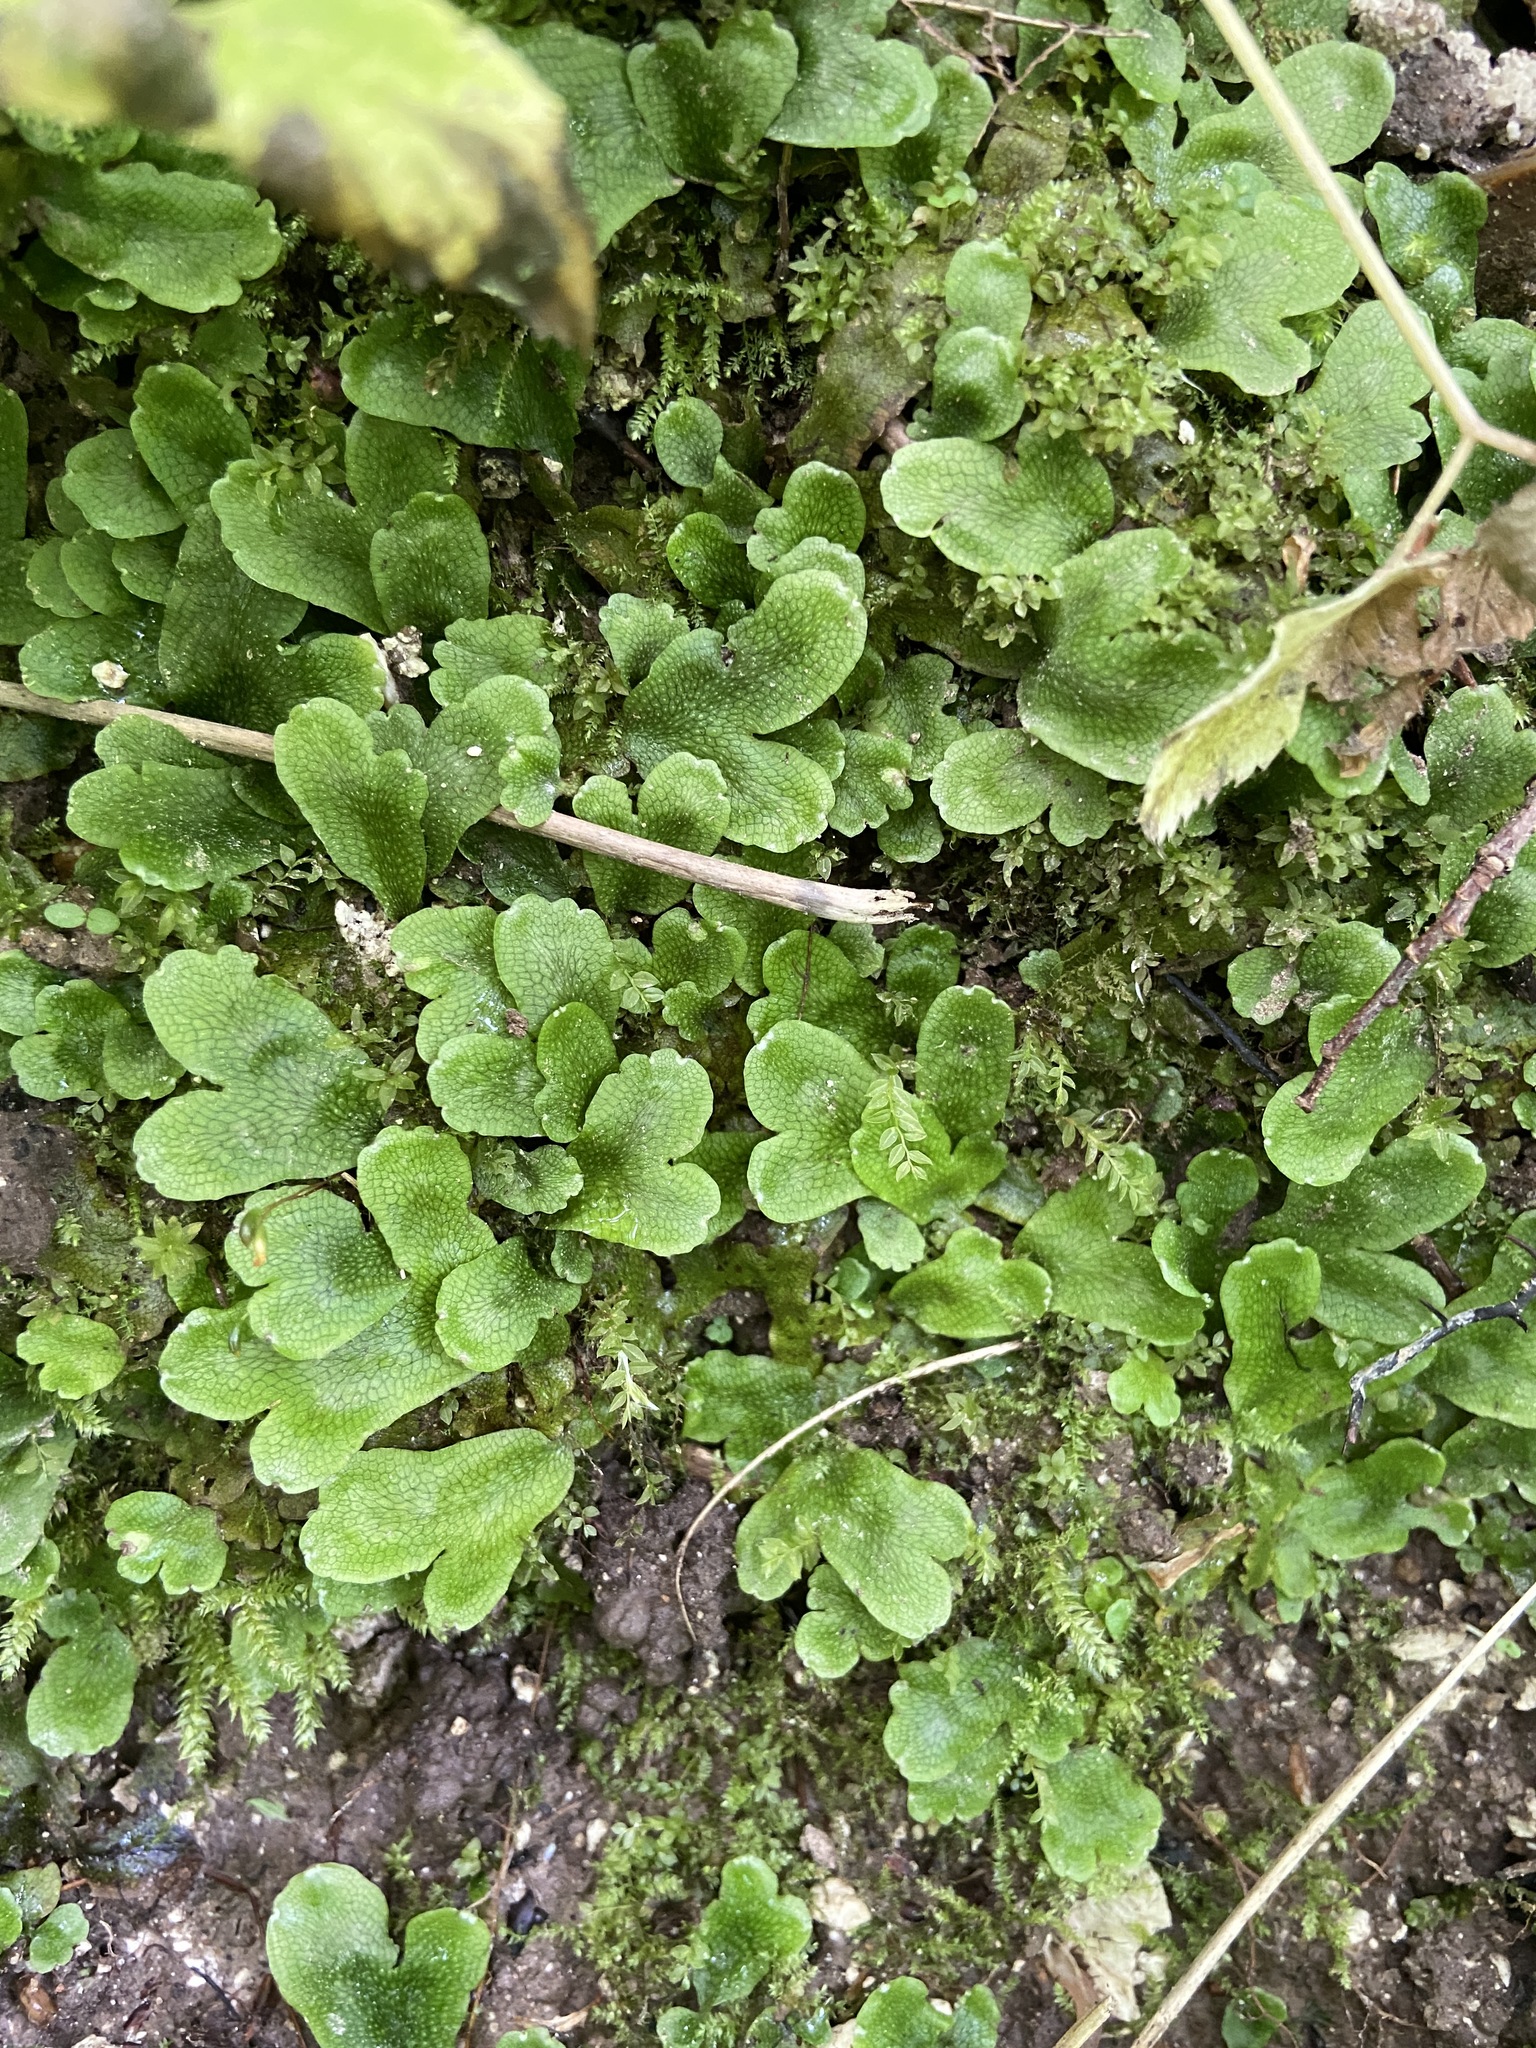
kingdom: Plantae
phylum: Marchantiophyta
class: Marchantiopsida
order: Marchantiales
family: Conocephalaceae
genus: Conocephalum
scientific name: Conocephalum salebrosum
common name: Cat-tongue liverwort
